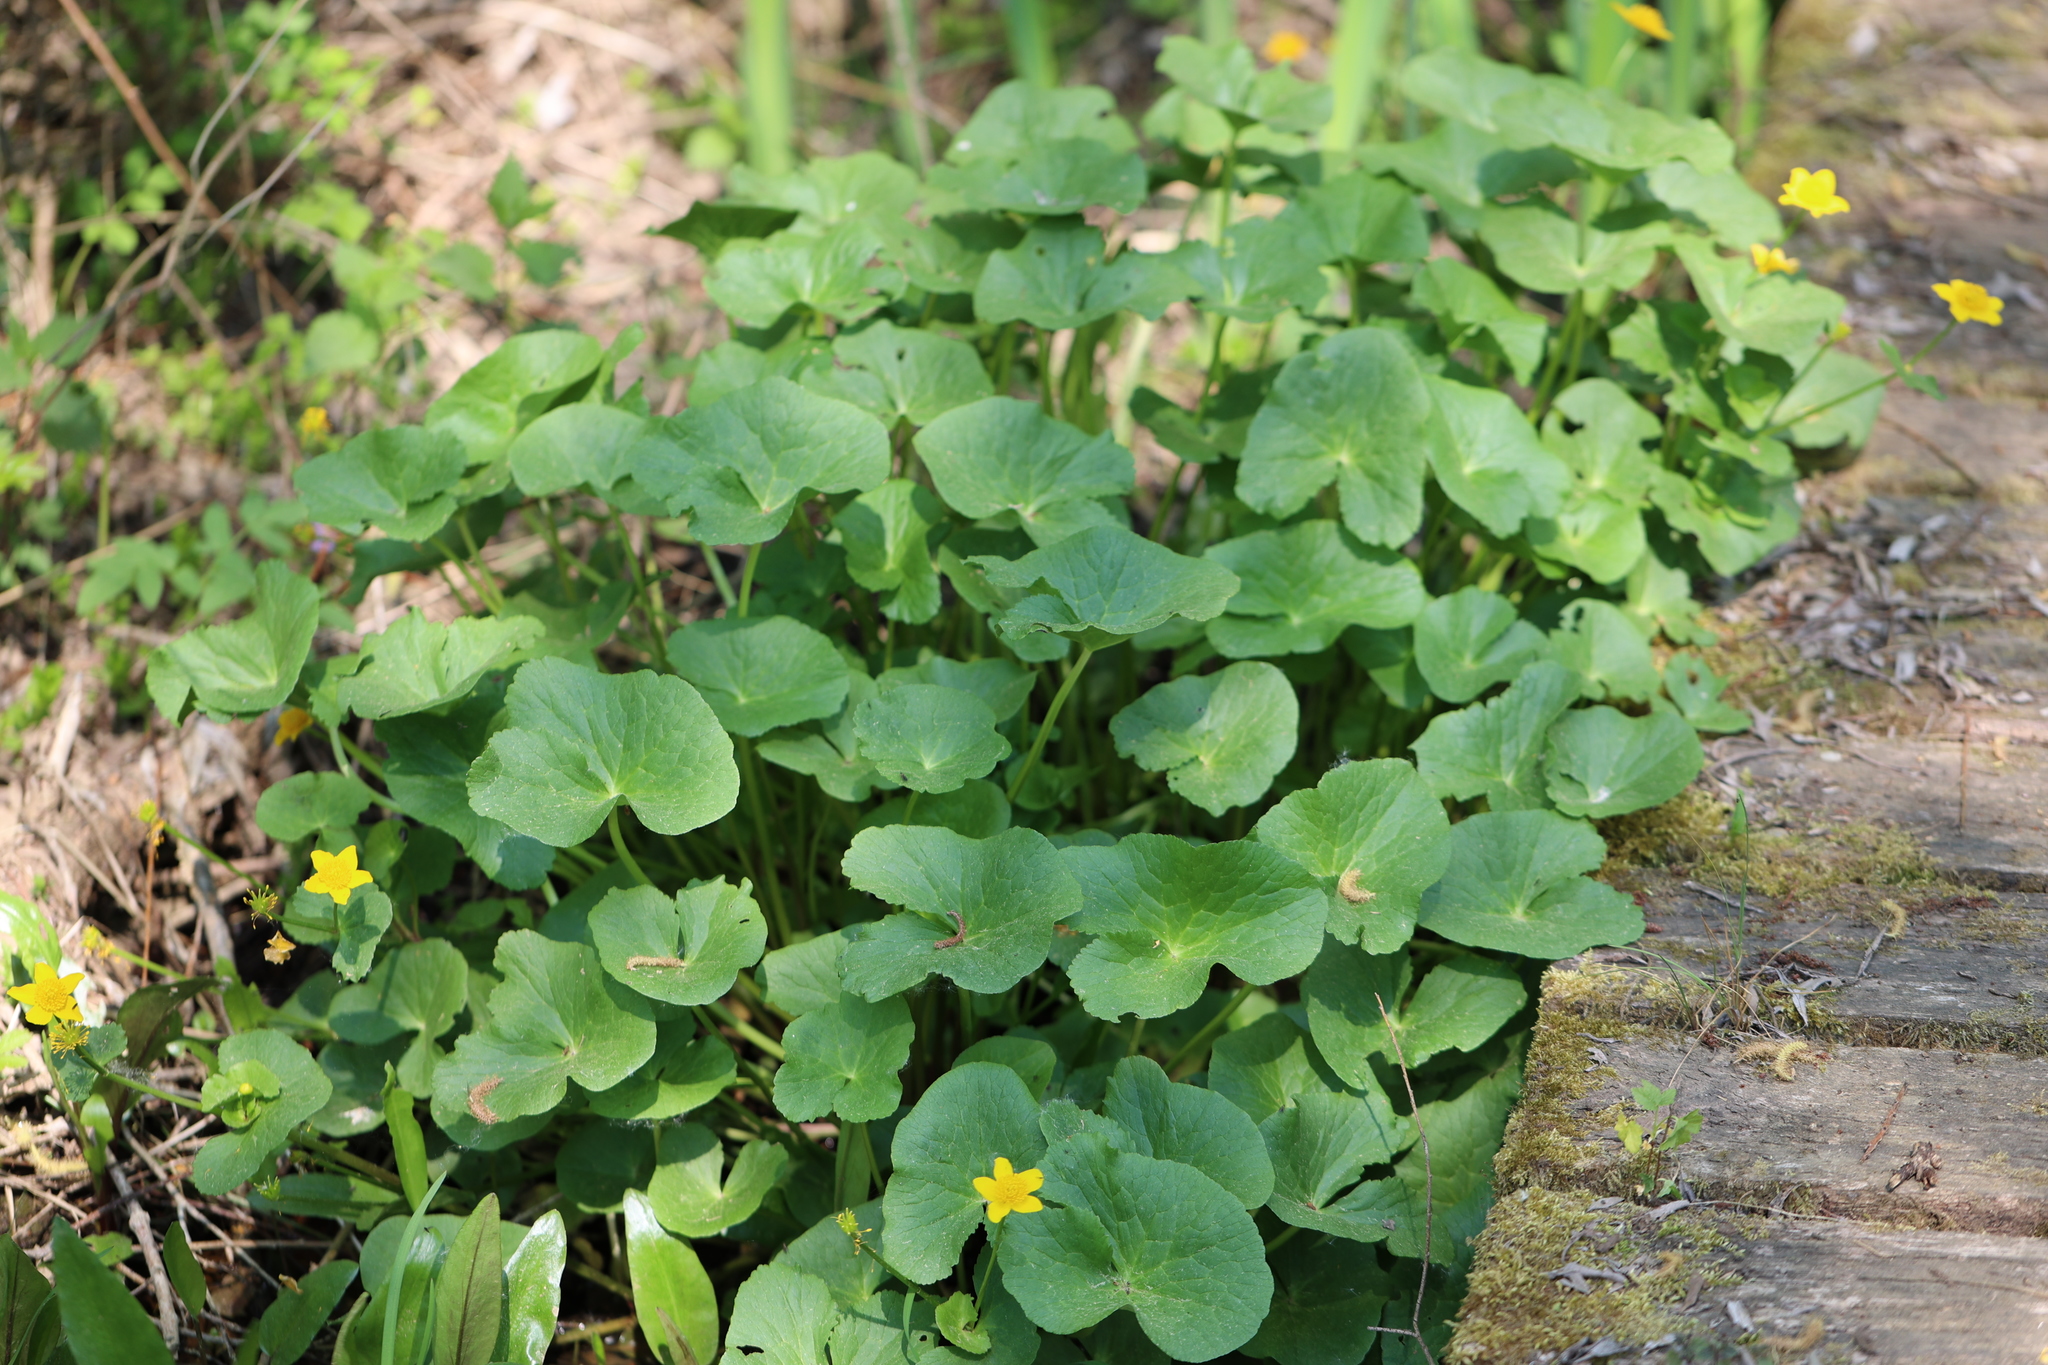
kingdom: Plantae
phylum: Tracheophyta
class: Magnoliopsida
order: Ranunculales
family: Ranunculaceae
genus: Caltha
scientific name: Caltha palustris
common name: Marsh marigold
